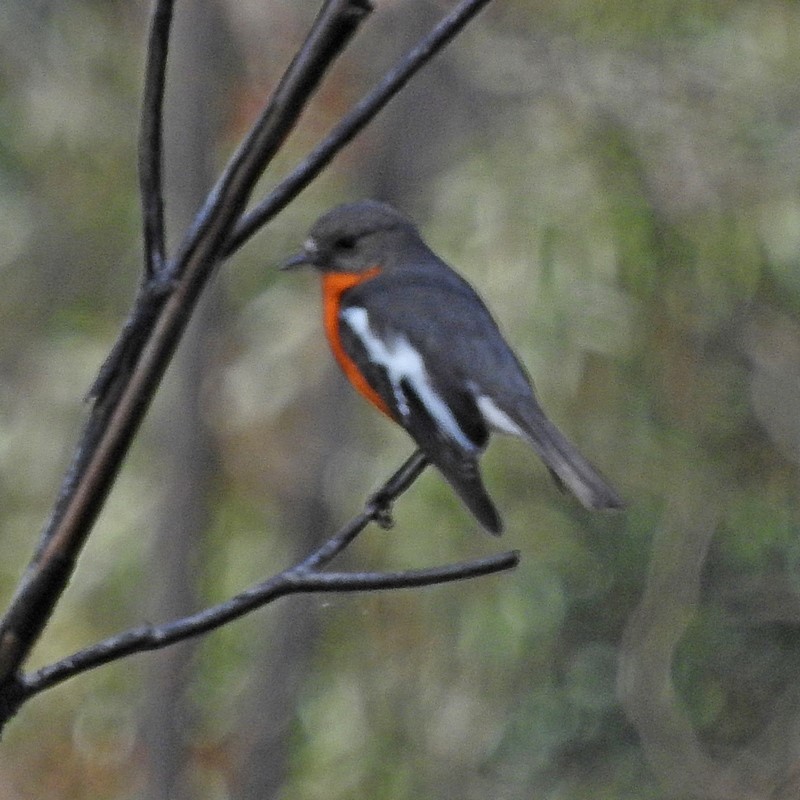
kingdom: Animalia
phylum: Chordata
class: Aves
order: Passeriformes
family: Petroicidae
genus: Petroica
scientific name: Petroica phoenicea
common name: Flame robin
